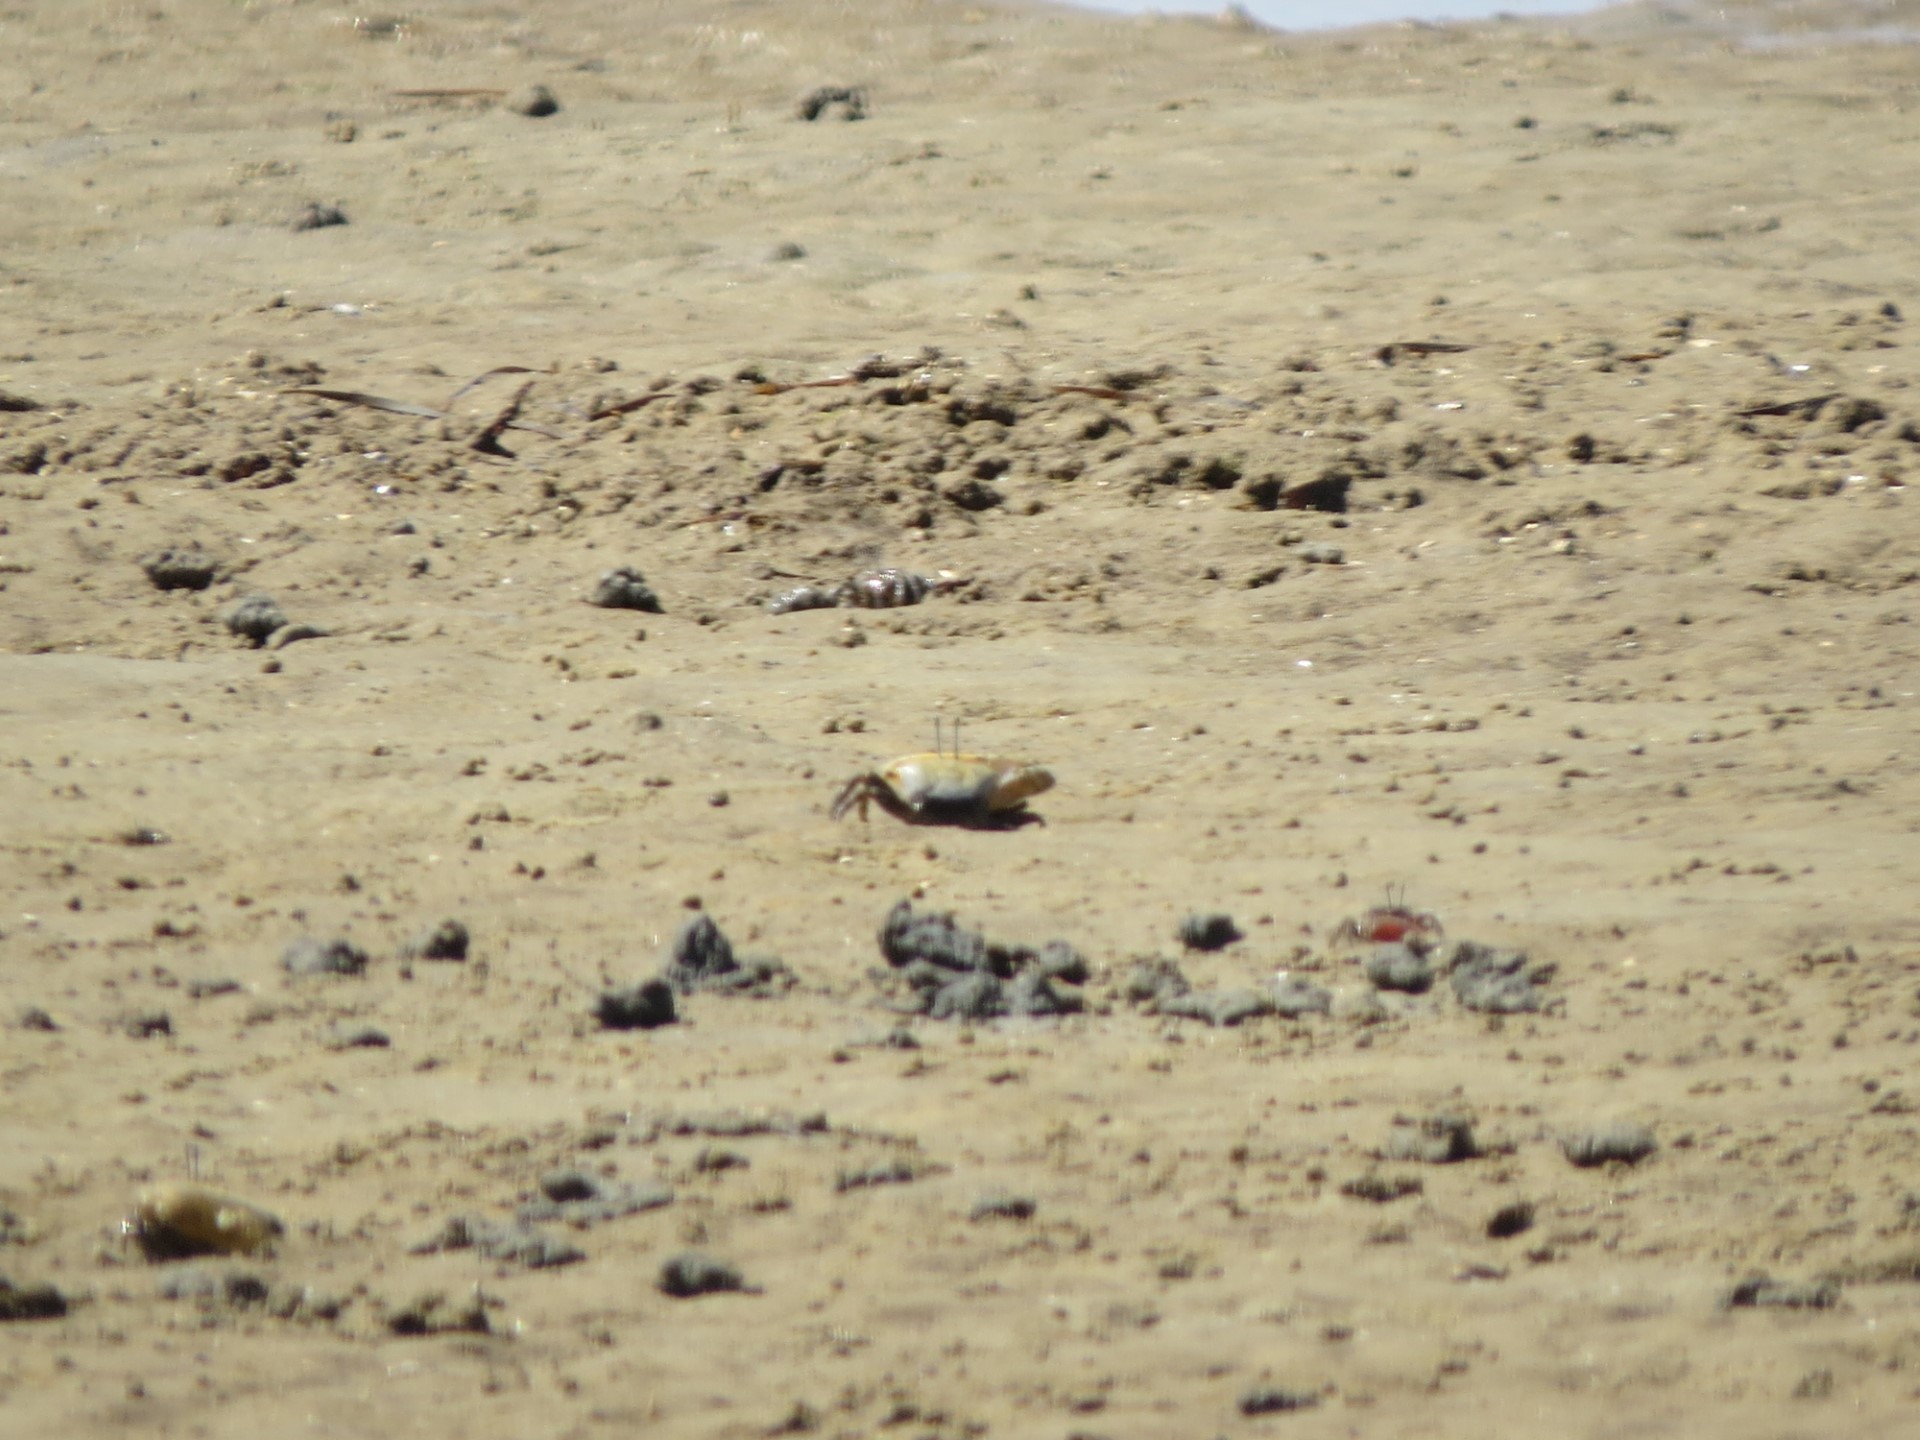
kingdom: Animalia
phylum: Arthropoda
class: Malacostraca
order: Decapoda
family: Ocypodidae
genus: Gelasimus
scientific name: Gelasimus hesperiae
